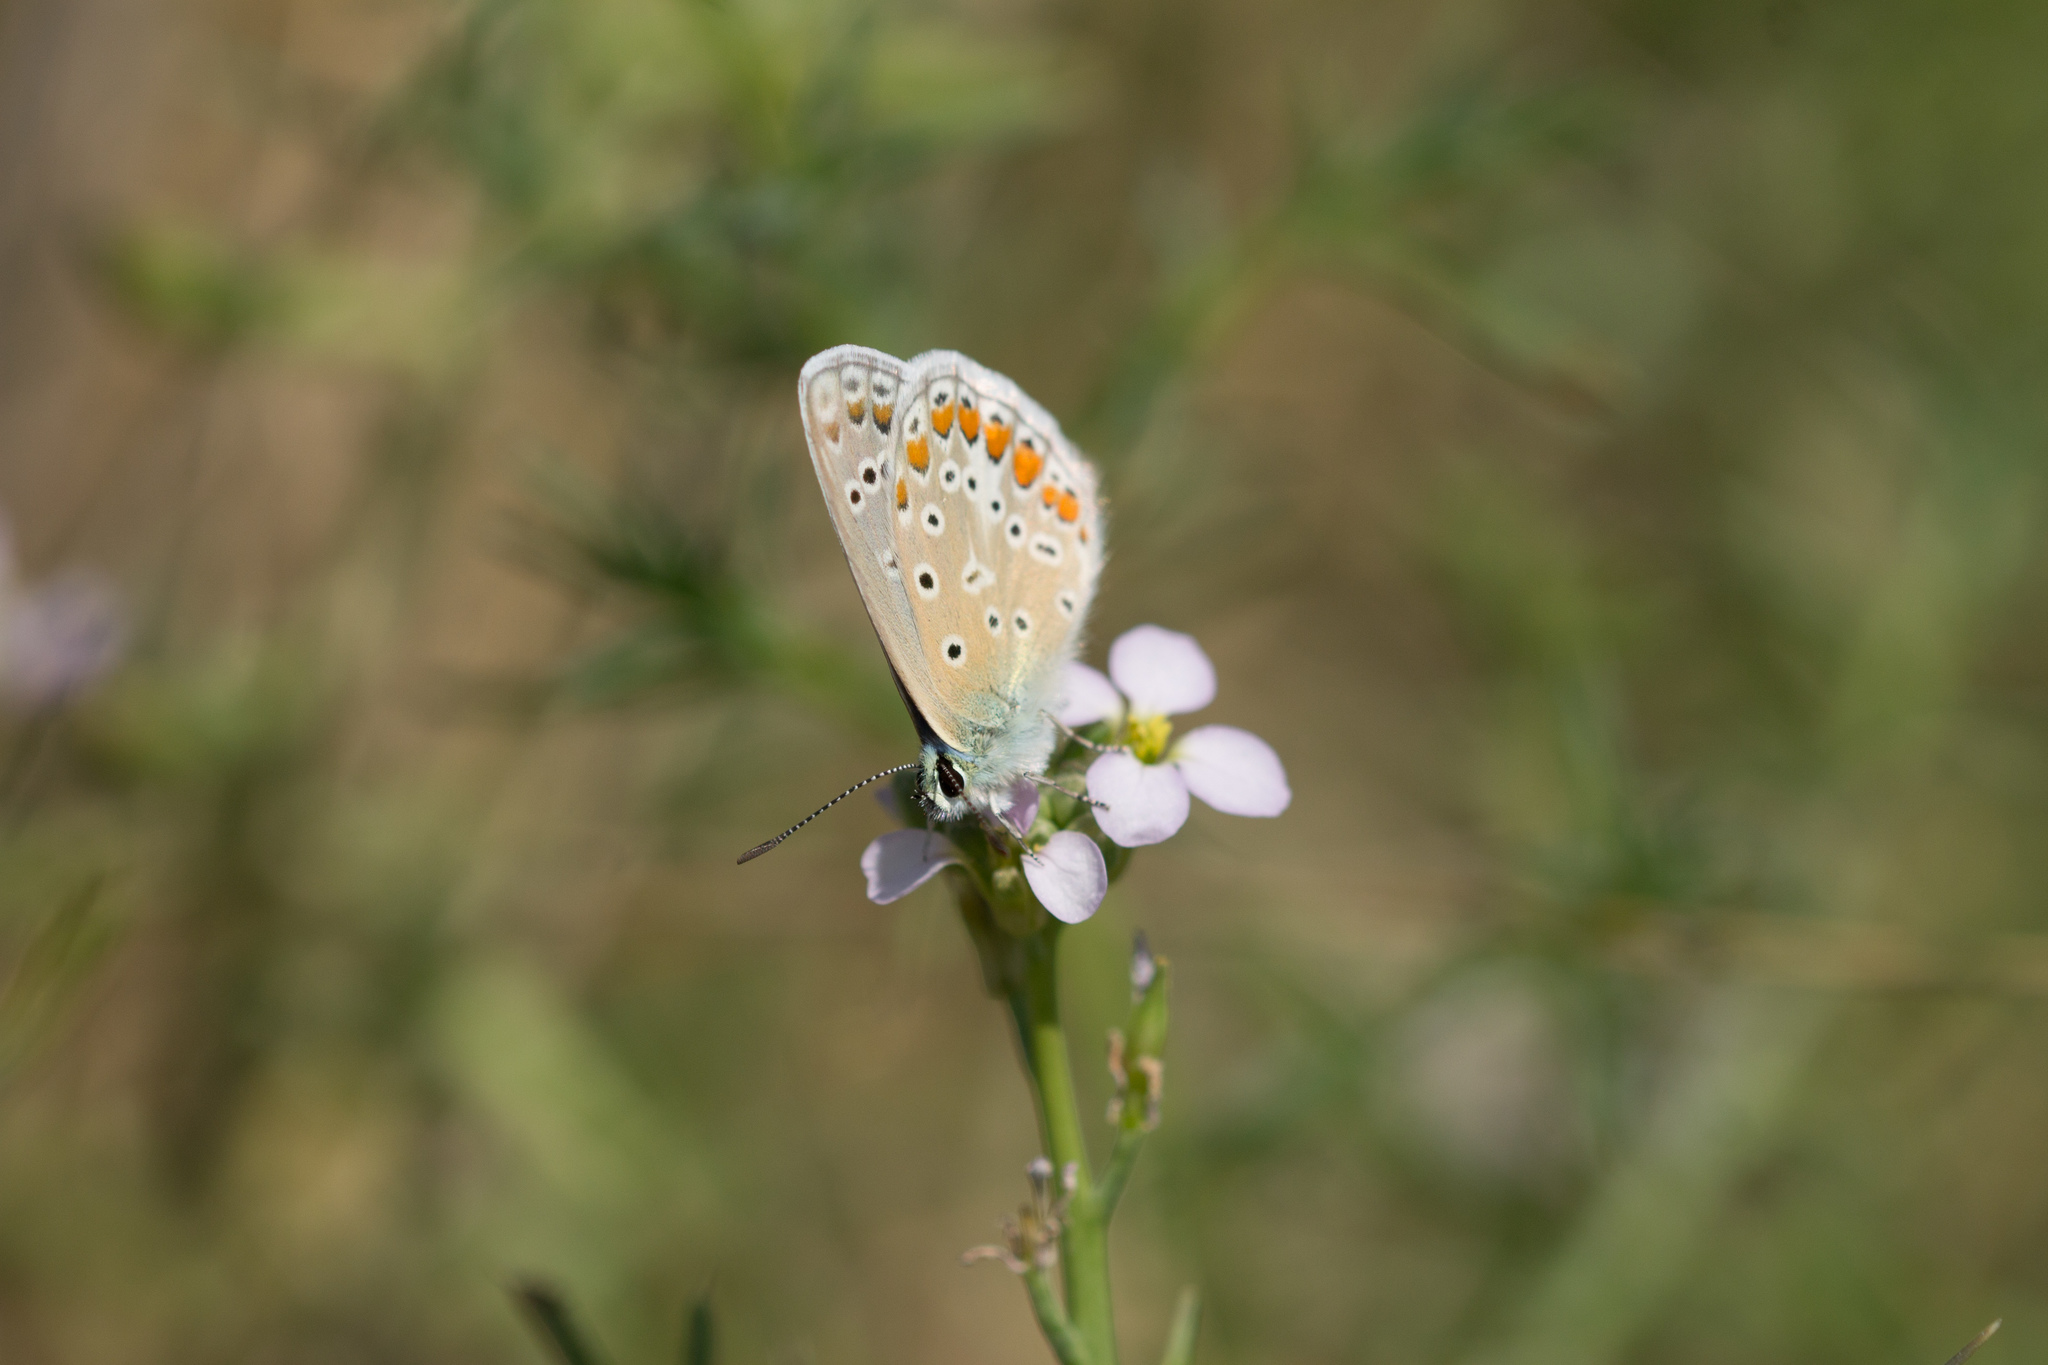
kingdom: Animalia
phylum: Arthropoda
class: Insecta
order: Lepidoptera
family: Lycaenidae
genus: Polyommatus
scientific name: Polyommatus icarus
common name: Common blue
